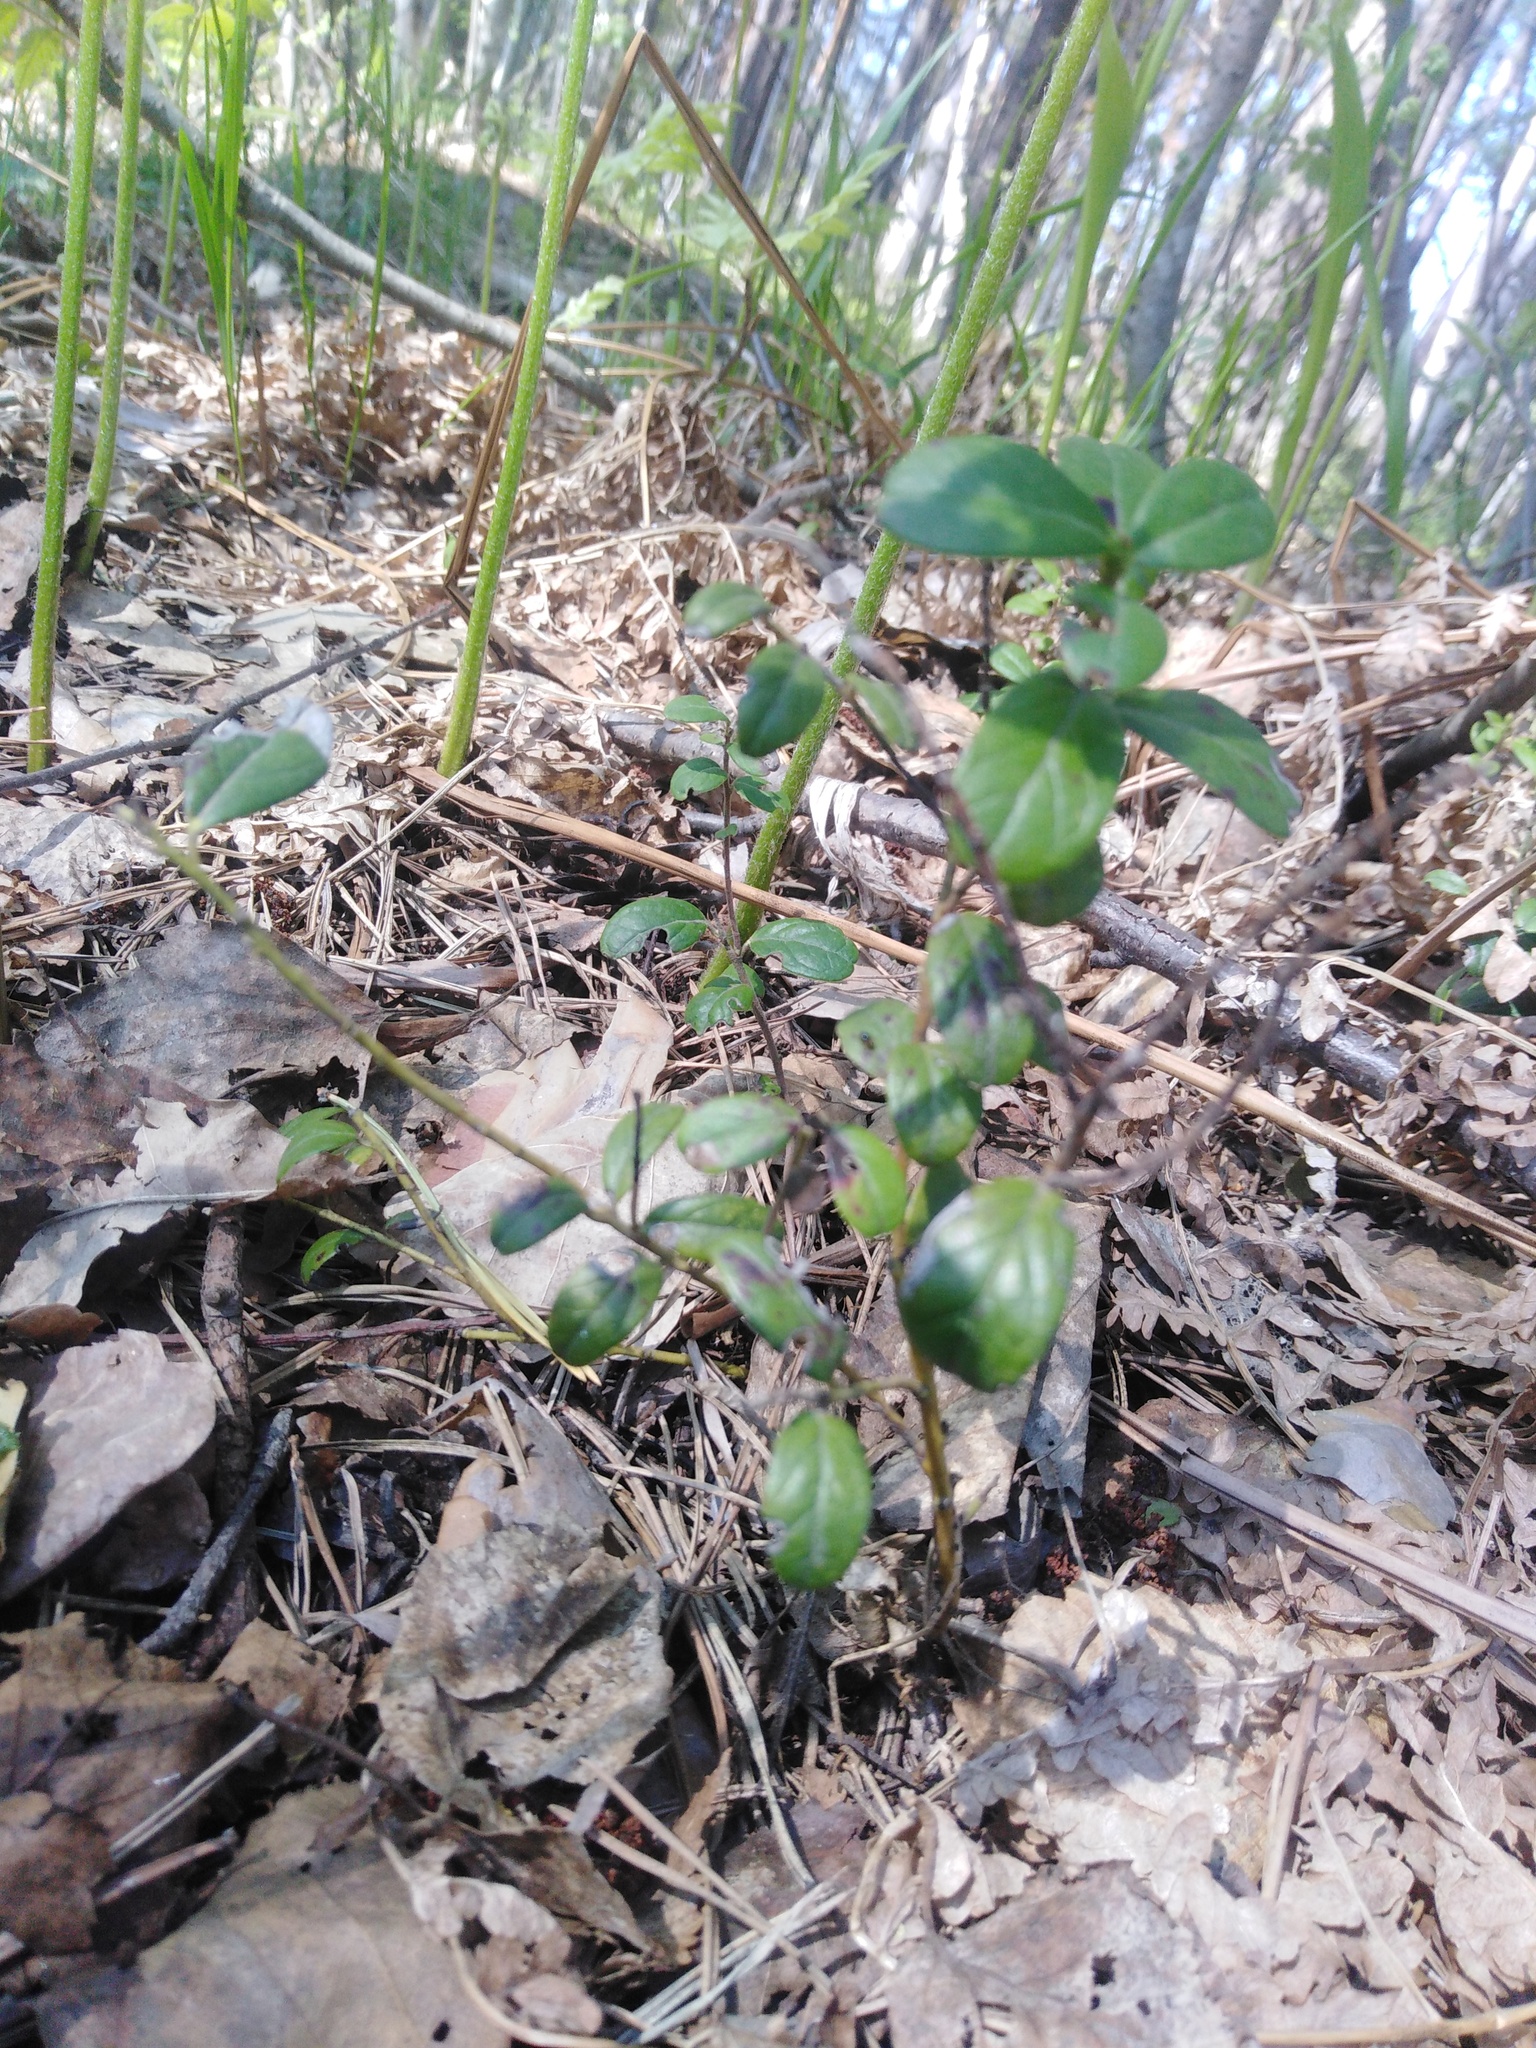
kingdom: Plantae
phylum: Tracheophyta
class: Magnoliopsida
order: Ericales
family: Ericaceae
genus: Vaccinium
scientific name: Vaccinium vitis-idaea
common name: Cowberry
